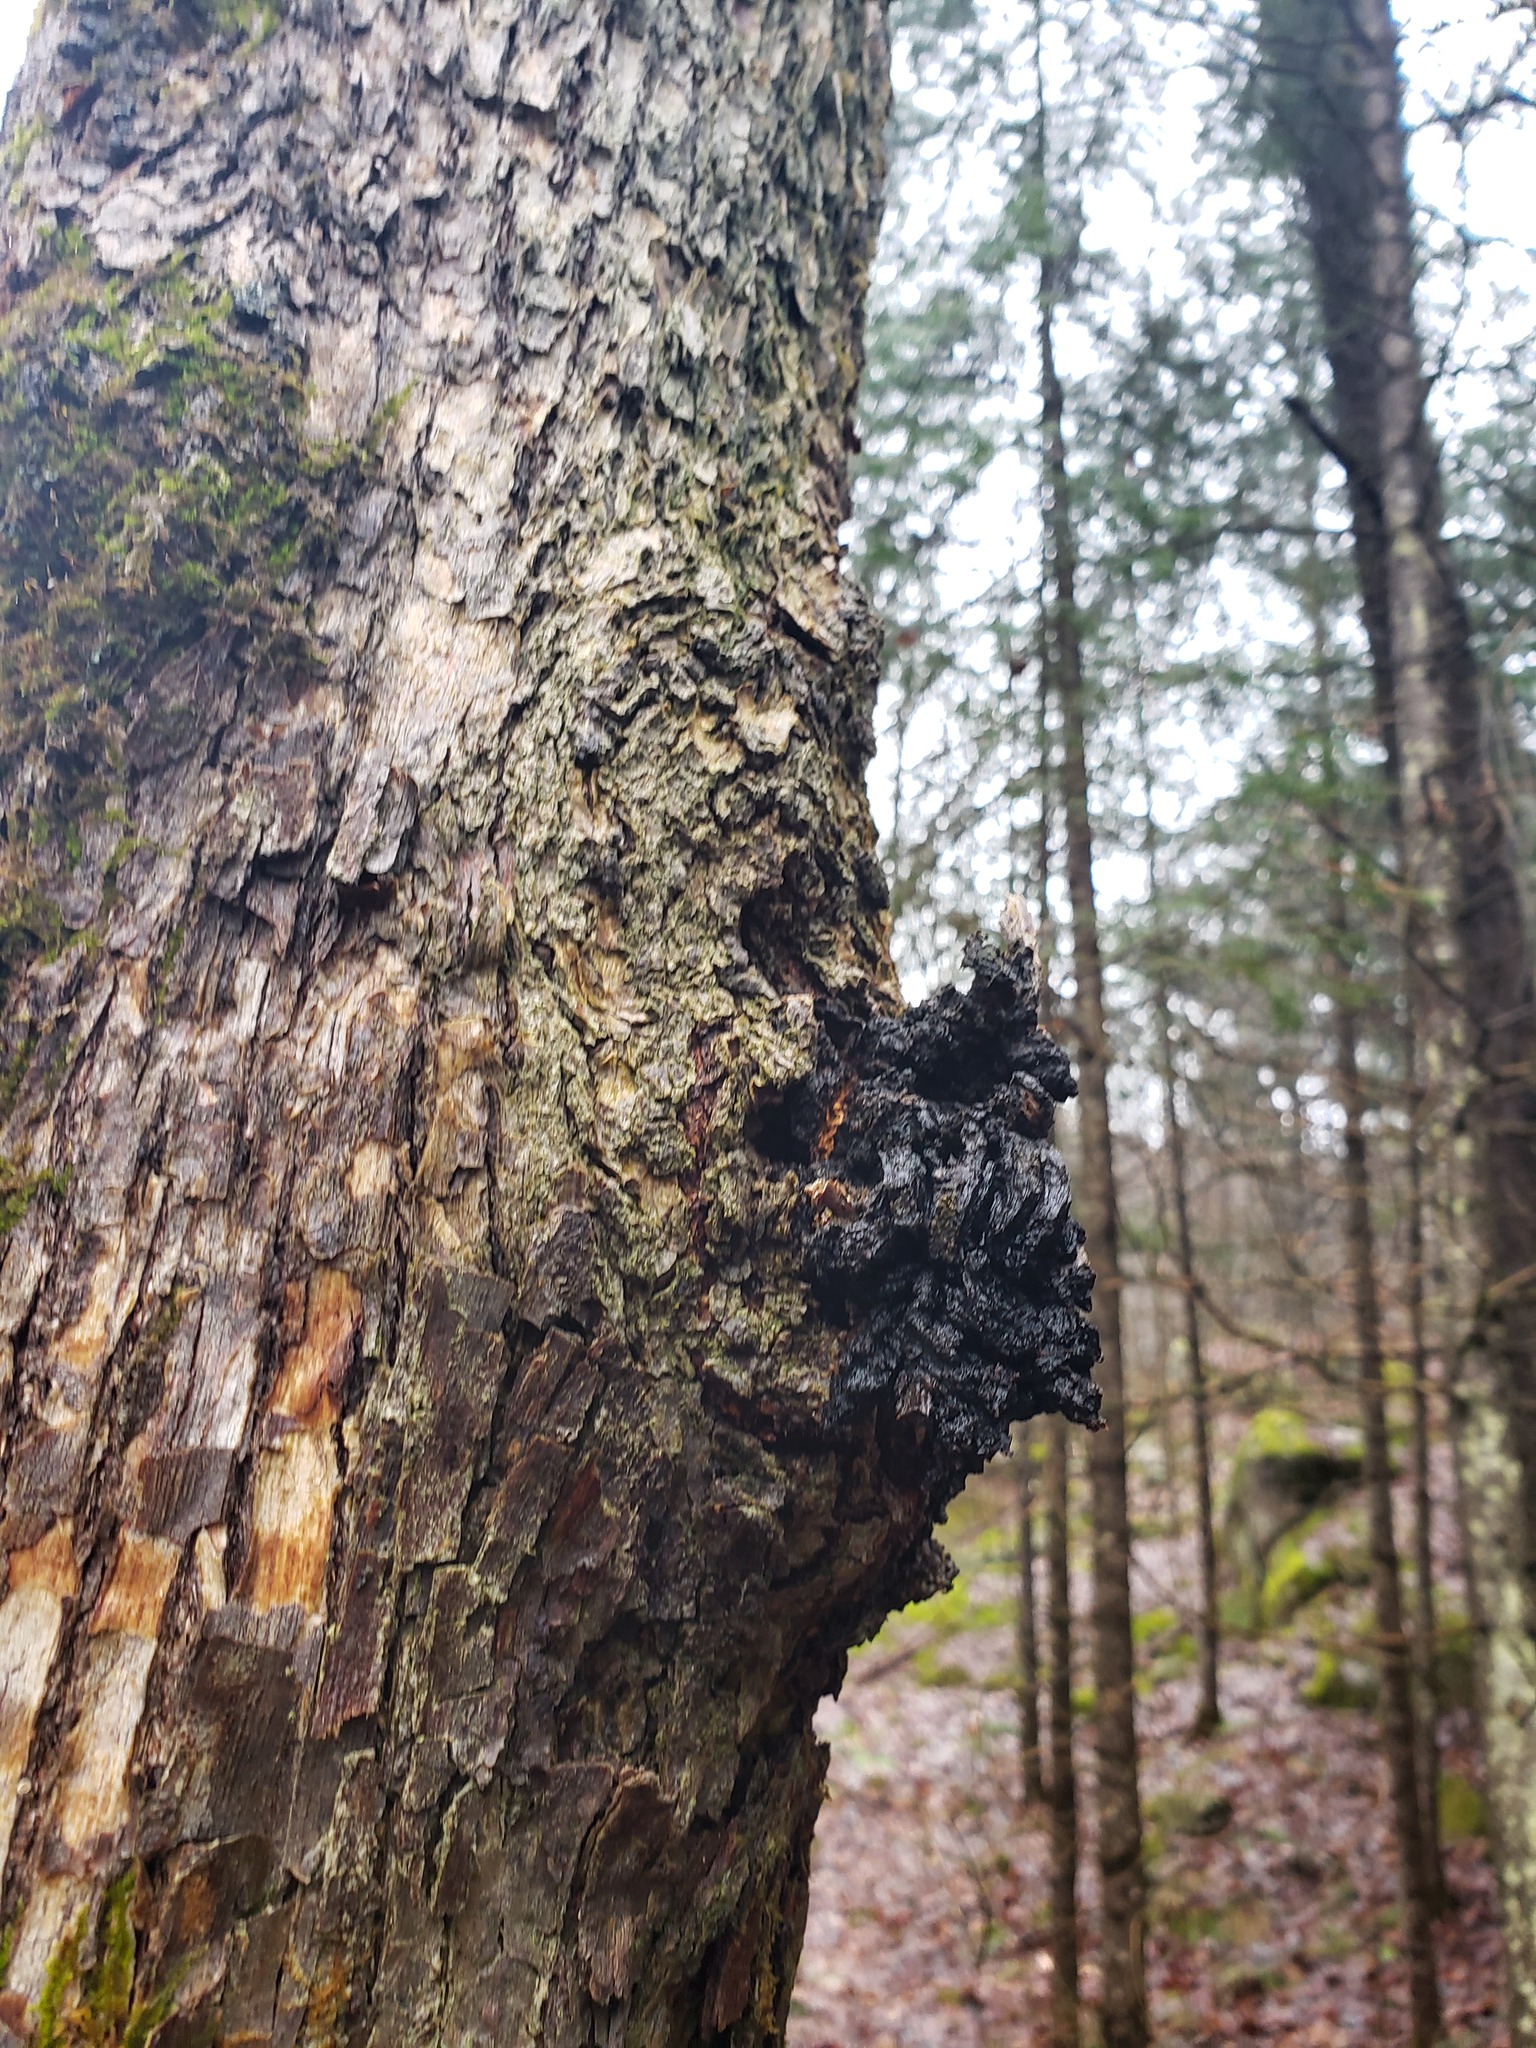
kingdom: Fungi
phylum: Basidiomycota
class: Agaricomycetes
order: Hymenochaetales
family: Hymenochaetaceae
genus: Inonotus
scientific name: Inonotus obliquus
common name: Chaga
